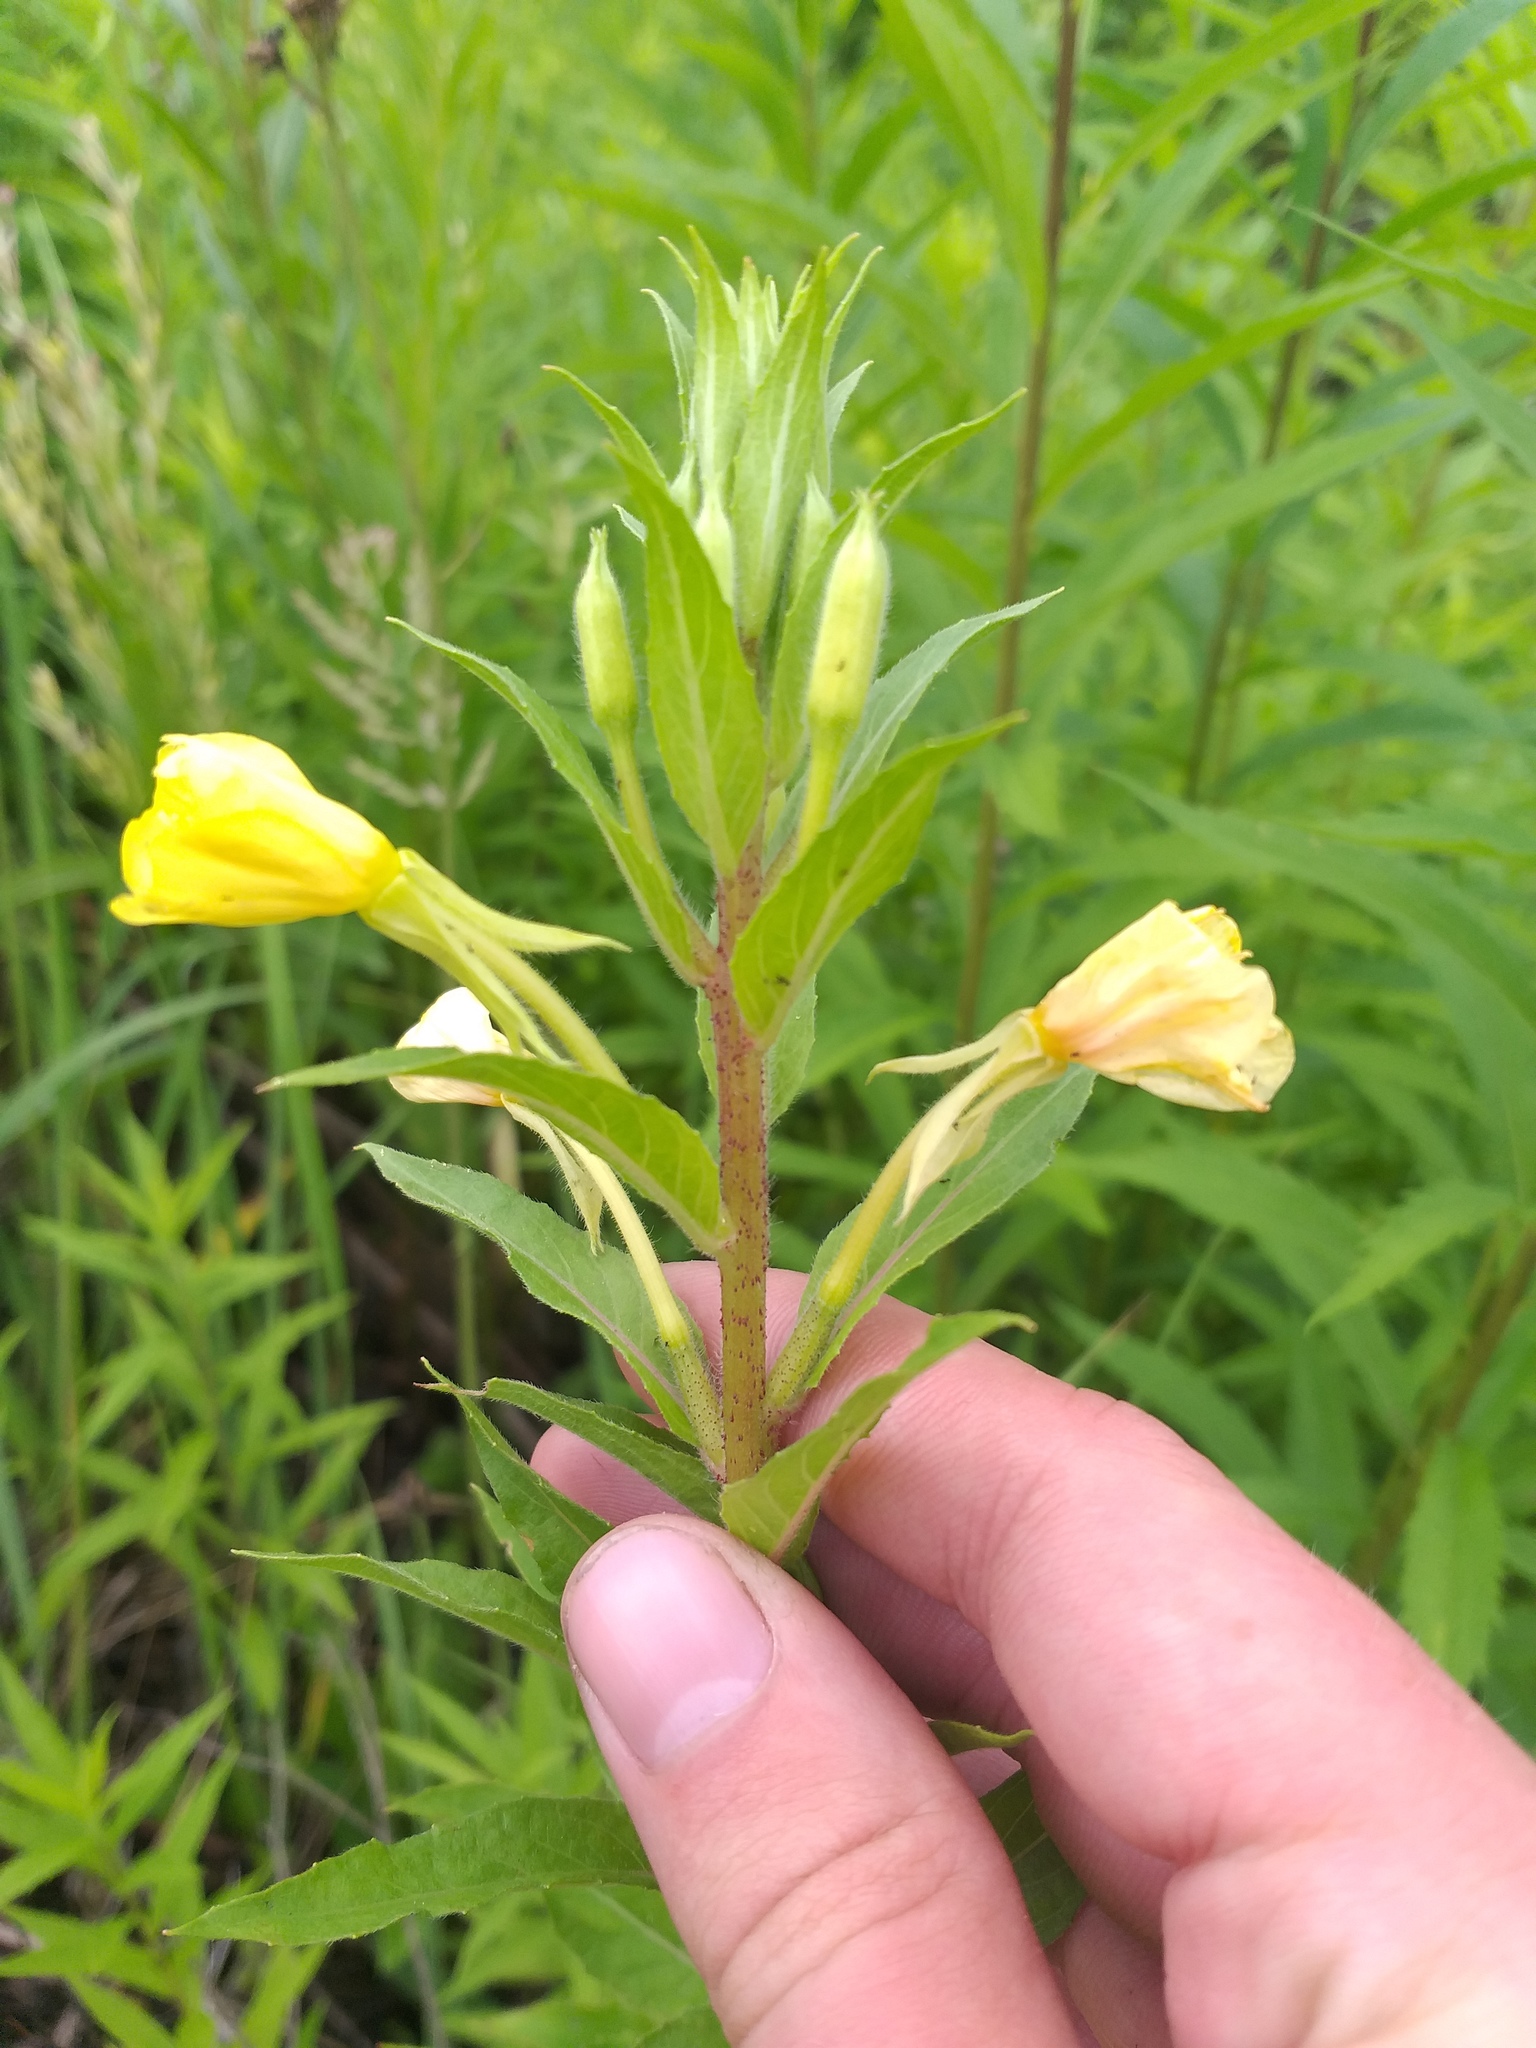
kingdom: Plantae
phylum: Tracheophyta
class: Magnoliopsida
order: Myrtales
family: Onagraceae
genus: Oenothera
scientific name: Oenothera rubricaulis
